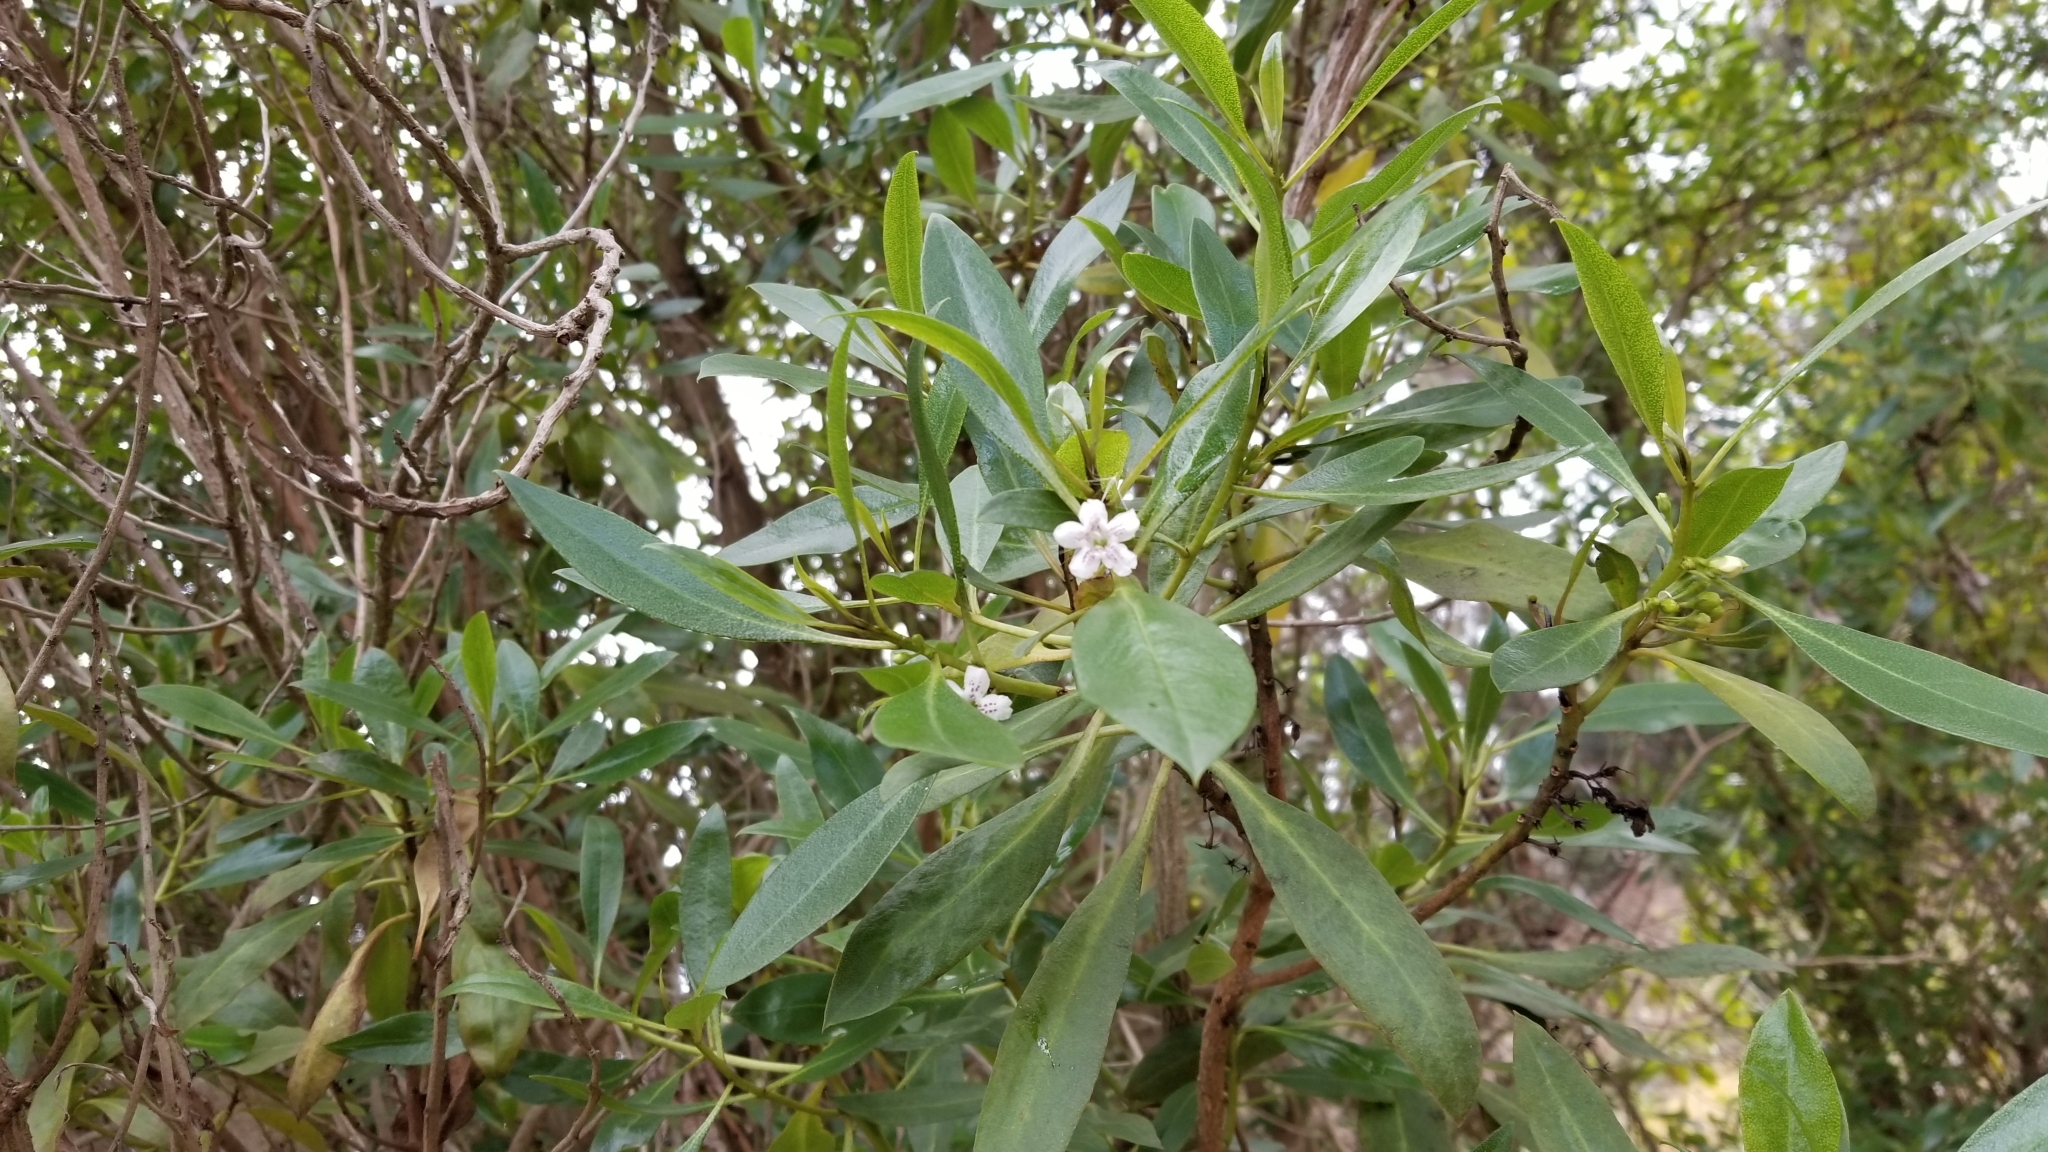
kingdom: Plantae
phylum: Tracheophyta
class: Magnoliopsida
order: Lamiales
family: Scrophulariaceae
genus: Myoporum
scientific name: Myoporum laetum
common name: Ngaio tree
